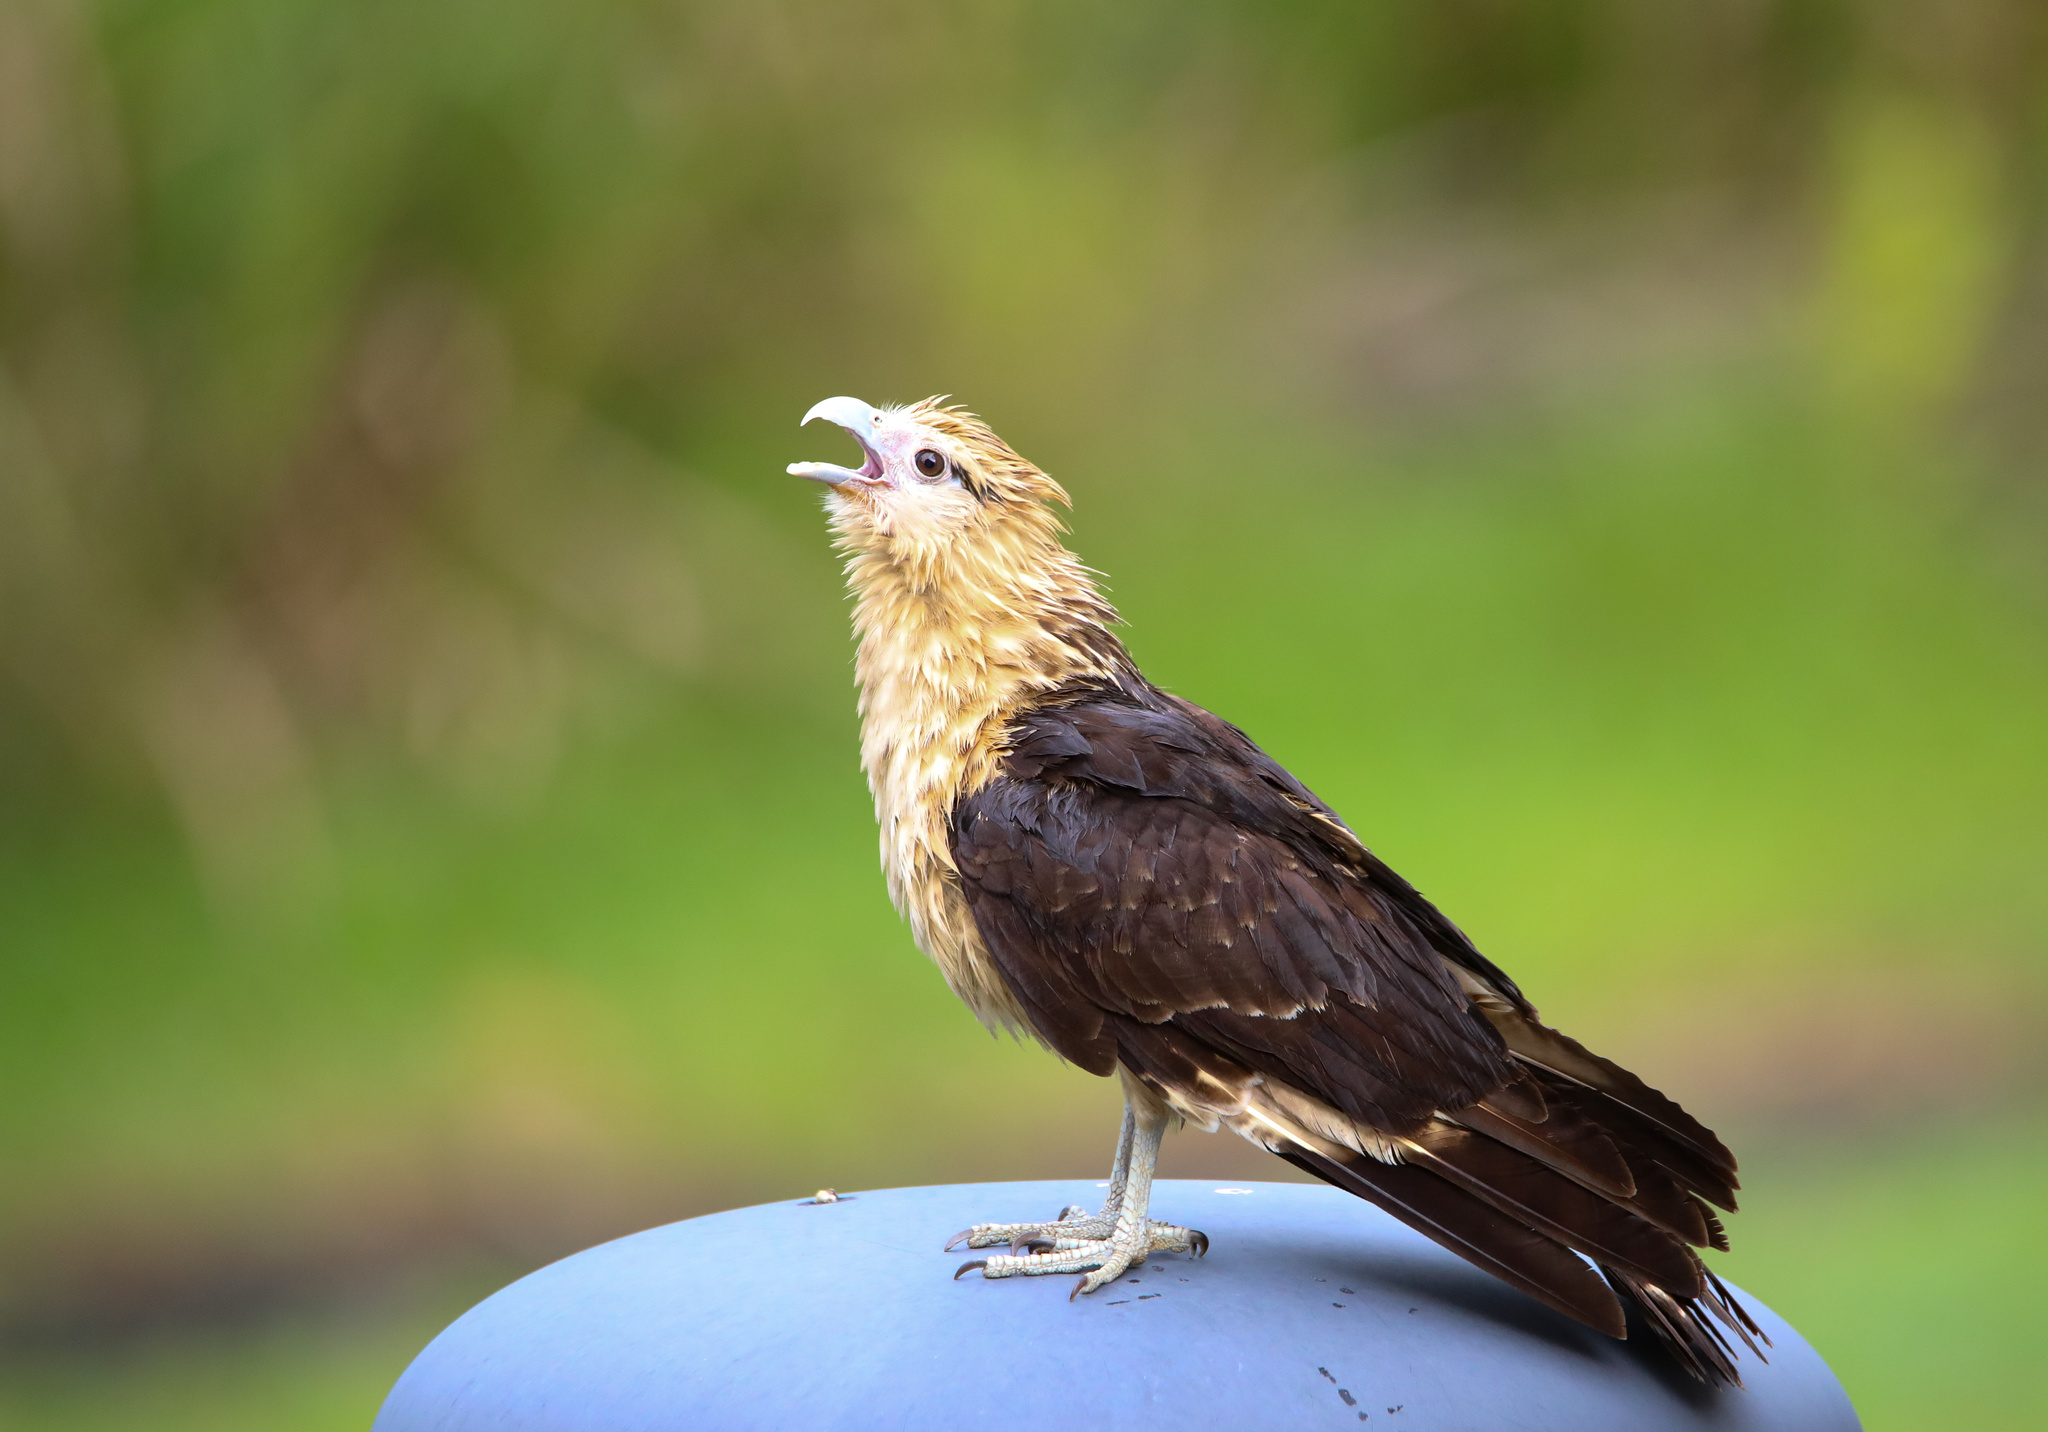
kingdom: Animalia
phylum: Chordata
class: Aves
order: Falconiformes
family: Falconidae
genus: Daptrius
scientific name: Daptrius
